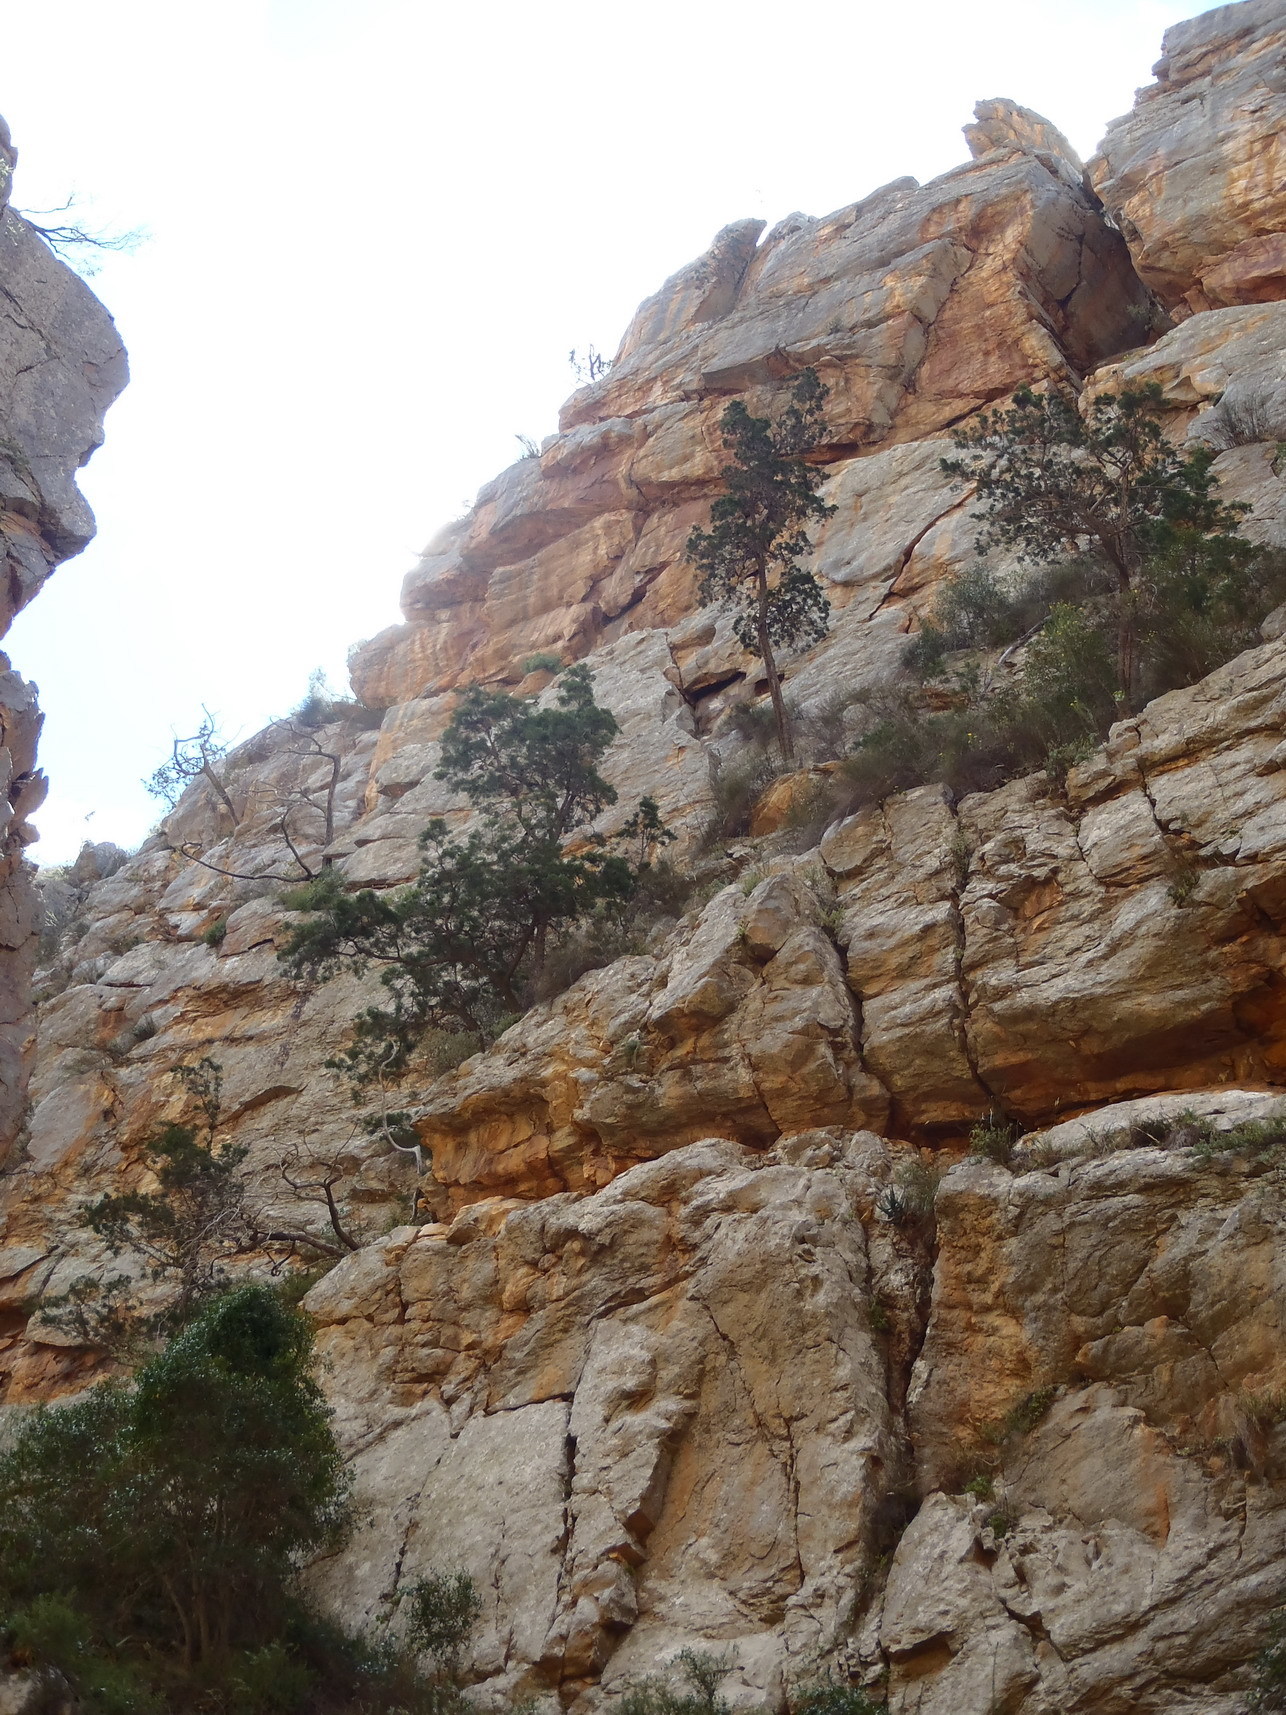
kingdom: Plantae
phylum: Tracheophyta
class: Pinopsida
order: Pinales
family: Cupressaceae
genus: Widdringtonia
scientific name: Widdringtonia schwarzii
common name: Baviaans cedar
